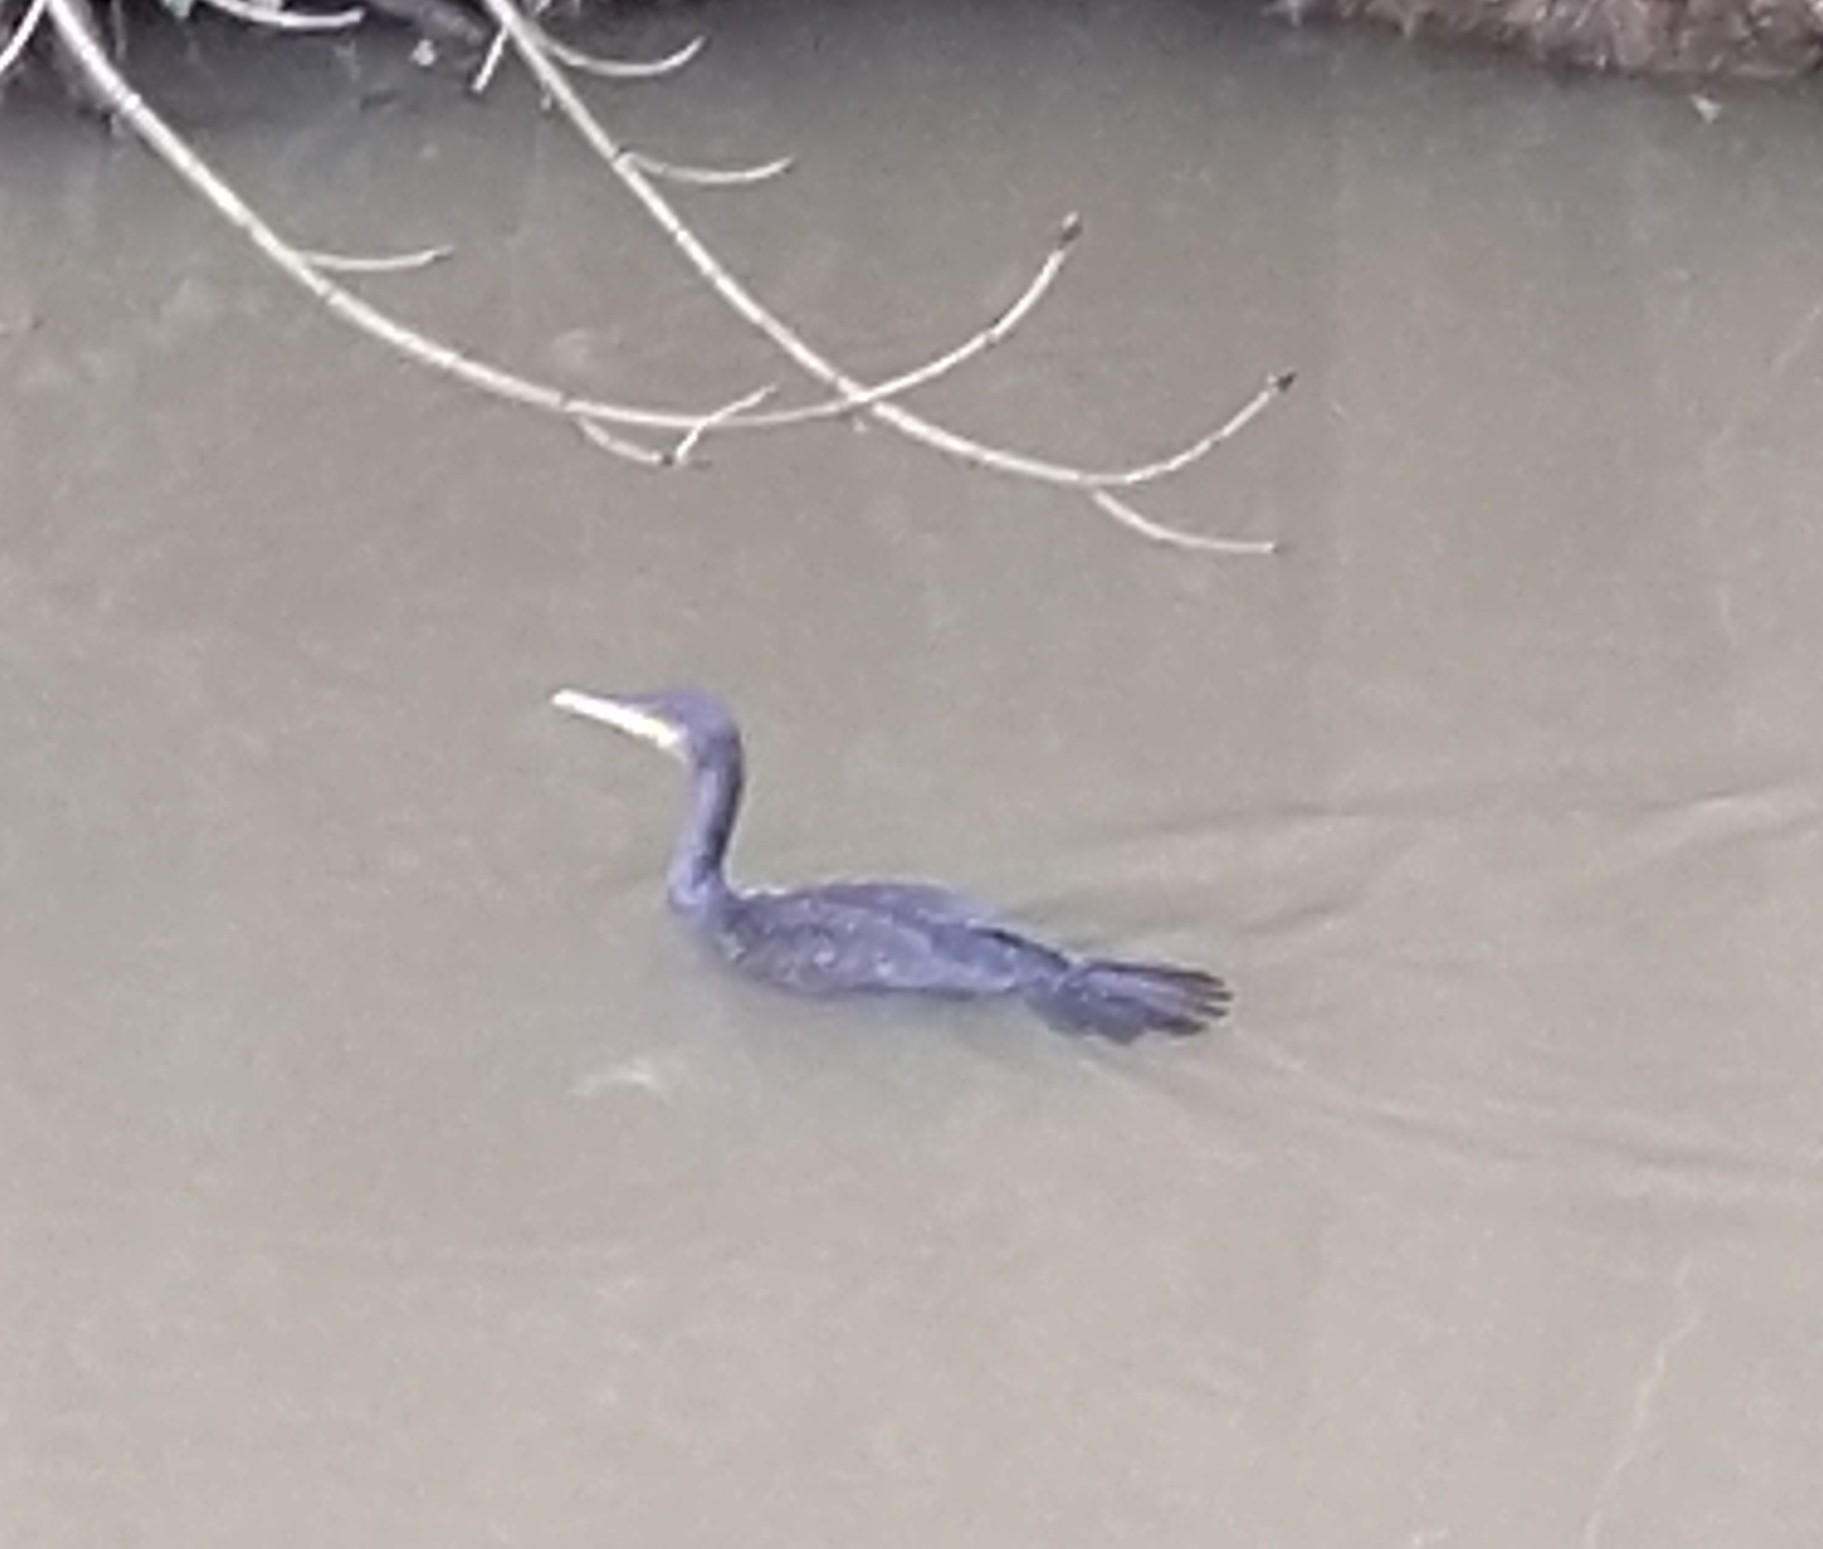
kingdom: Animalia
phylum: Chordata
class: Aves
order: Suliformes
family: Phalacrocoracidae
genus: Phalacrocorax
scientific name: Phalacrocorax carbo
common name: Great cormorant
